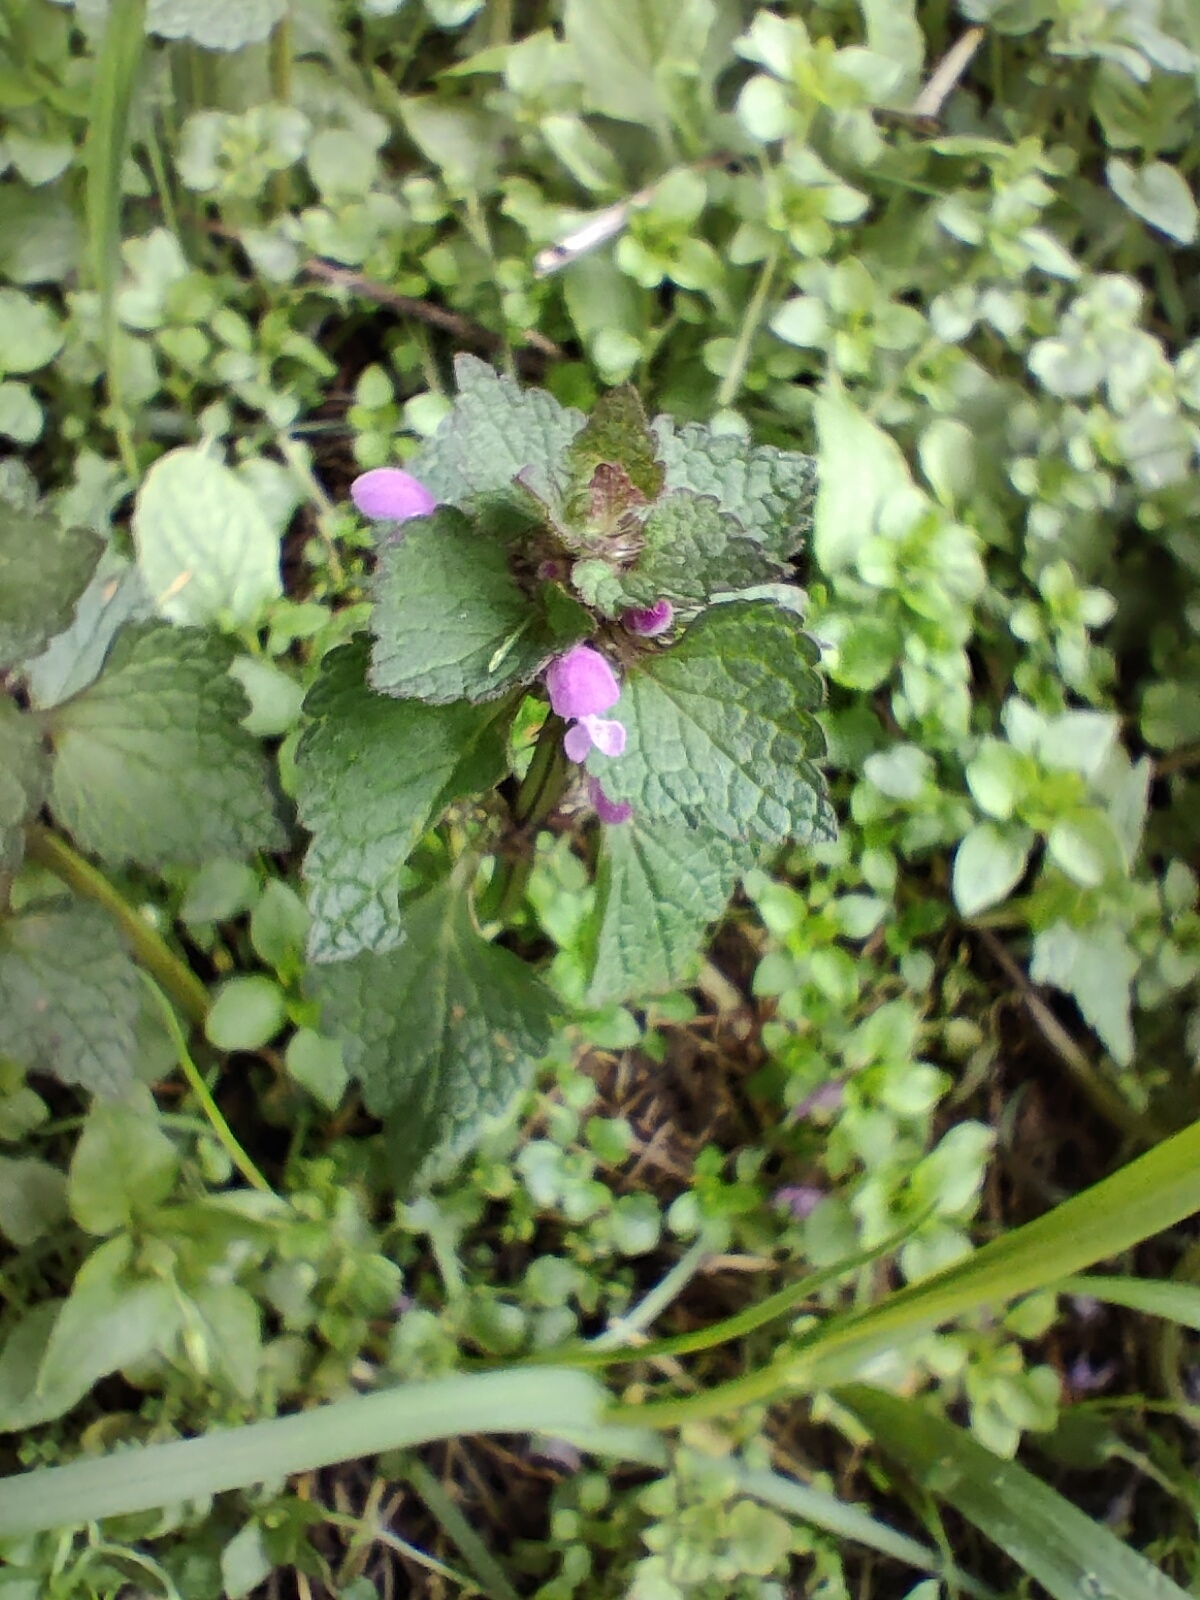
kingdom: Plantae
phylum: Tracheophyta
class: Magnoliopsida
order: Lamiales
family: Lamiaceae
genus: Lamium
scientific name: Lamium purpureum
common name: Red dead-nettle
